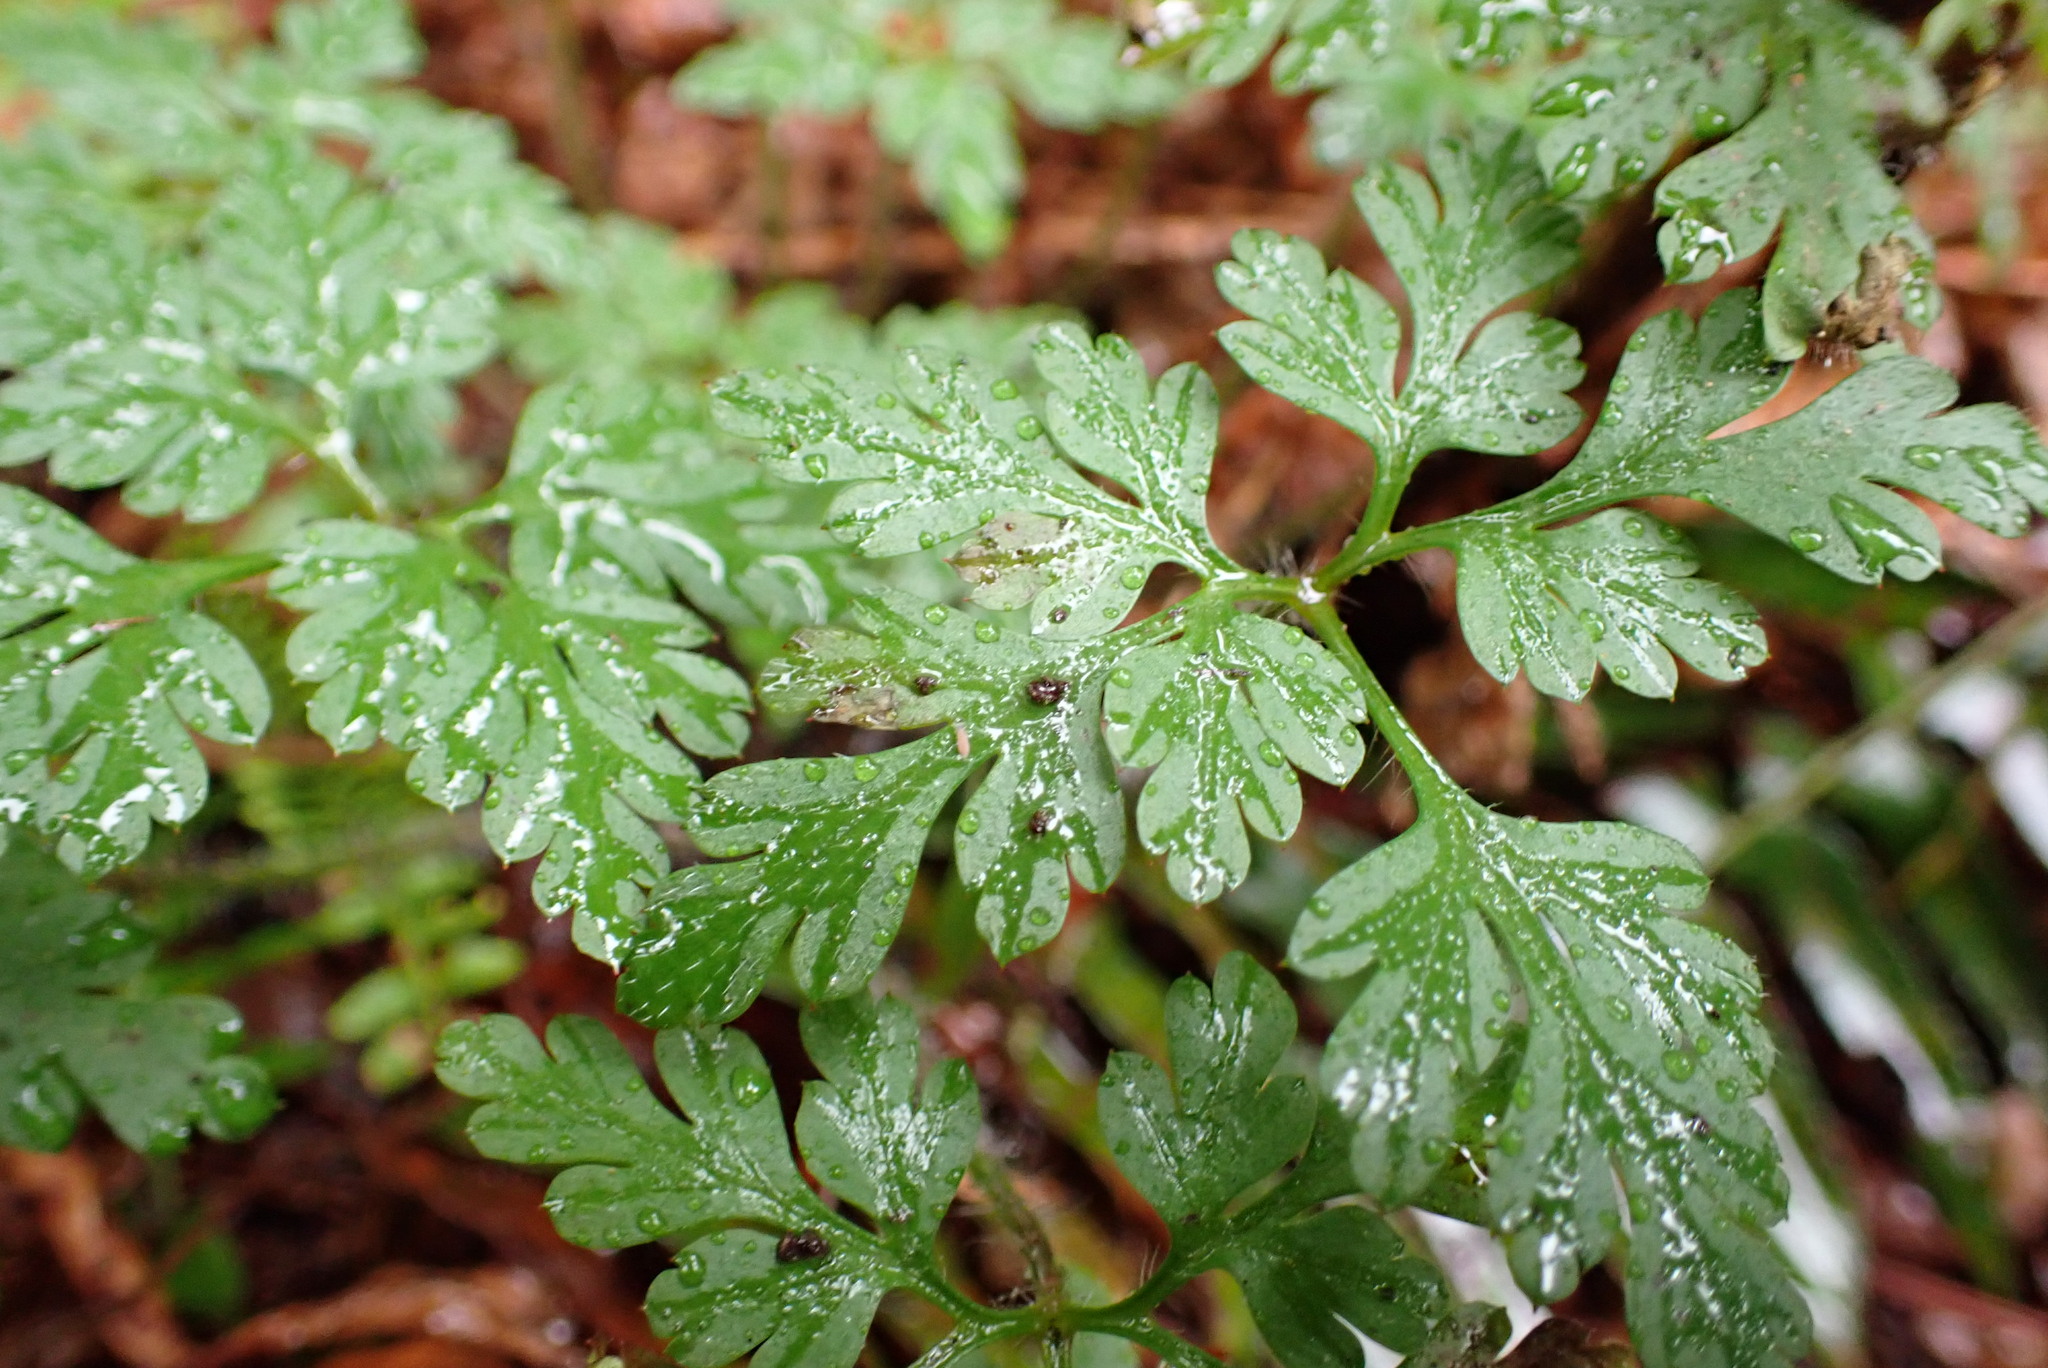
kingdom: Plantae
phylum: Tracheophyta
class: Magnoliopsida
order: Geraniales
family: Geraniaceae
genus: Geranium
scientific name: Geranium robertianum
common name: Herb-robert
